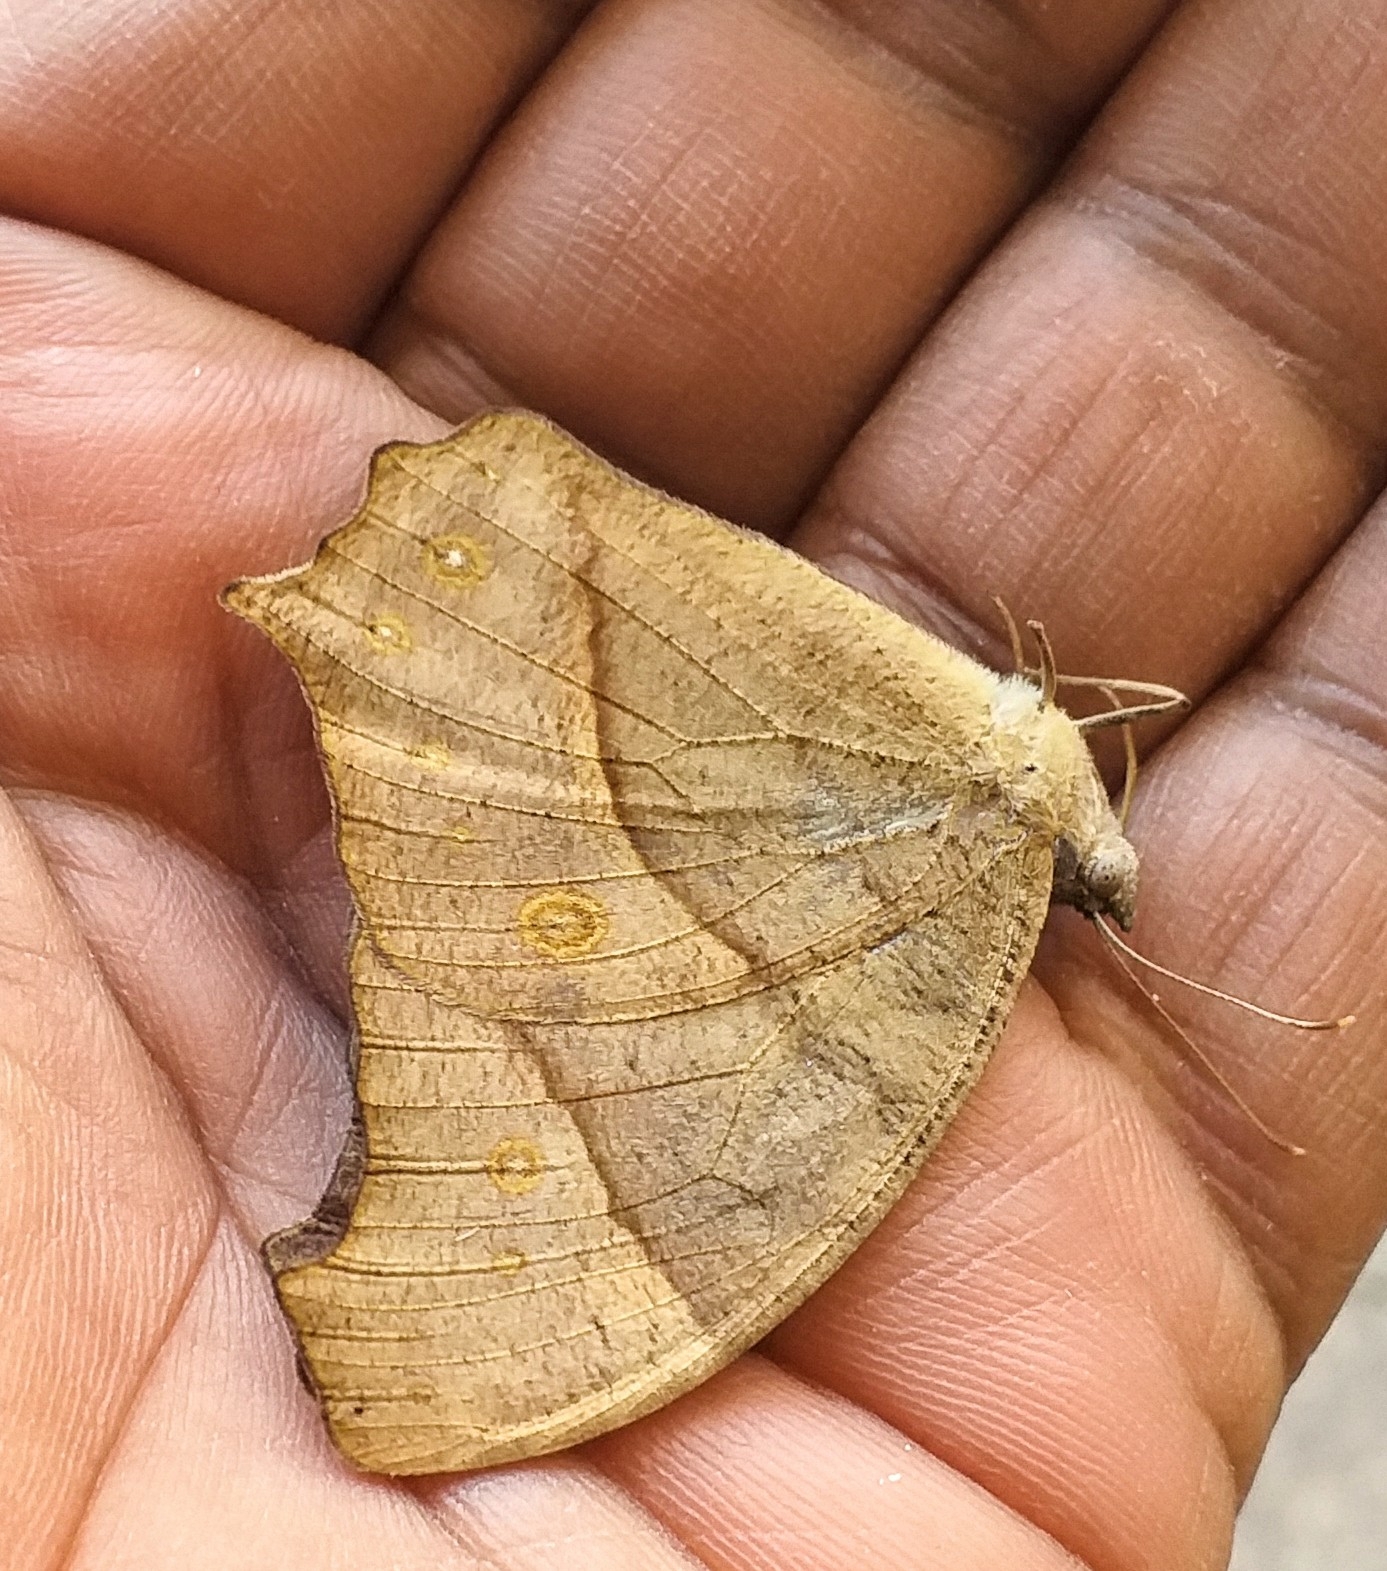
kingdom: Animalia
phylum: Arthropoda
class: Insecta
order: Lepidoptera
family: Nymphalidae
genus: Melanitis
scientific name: Melanitis leda
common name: Twilight brown
